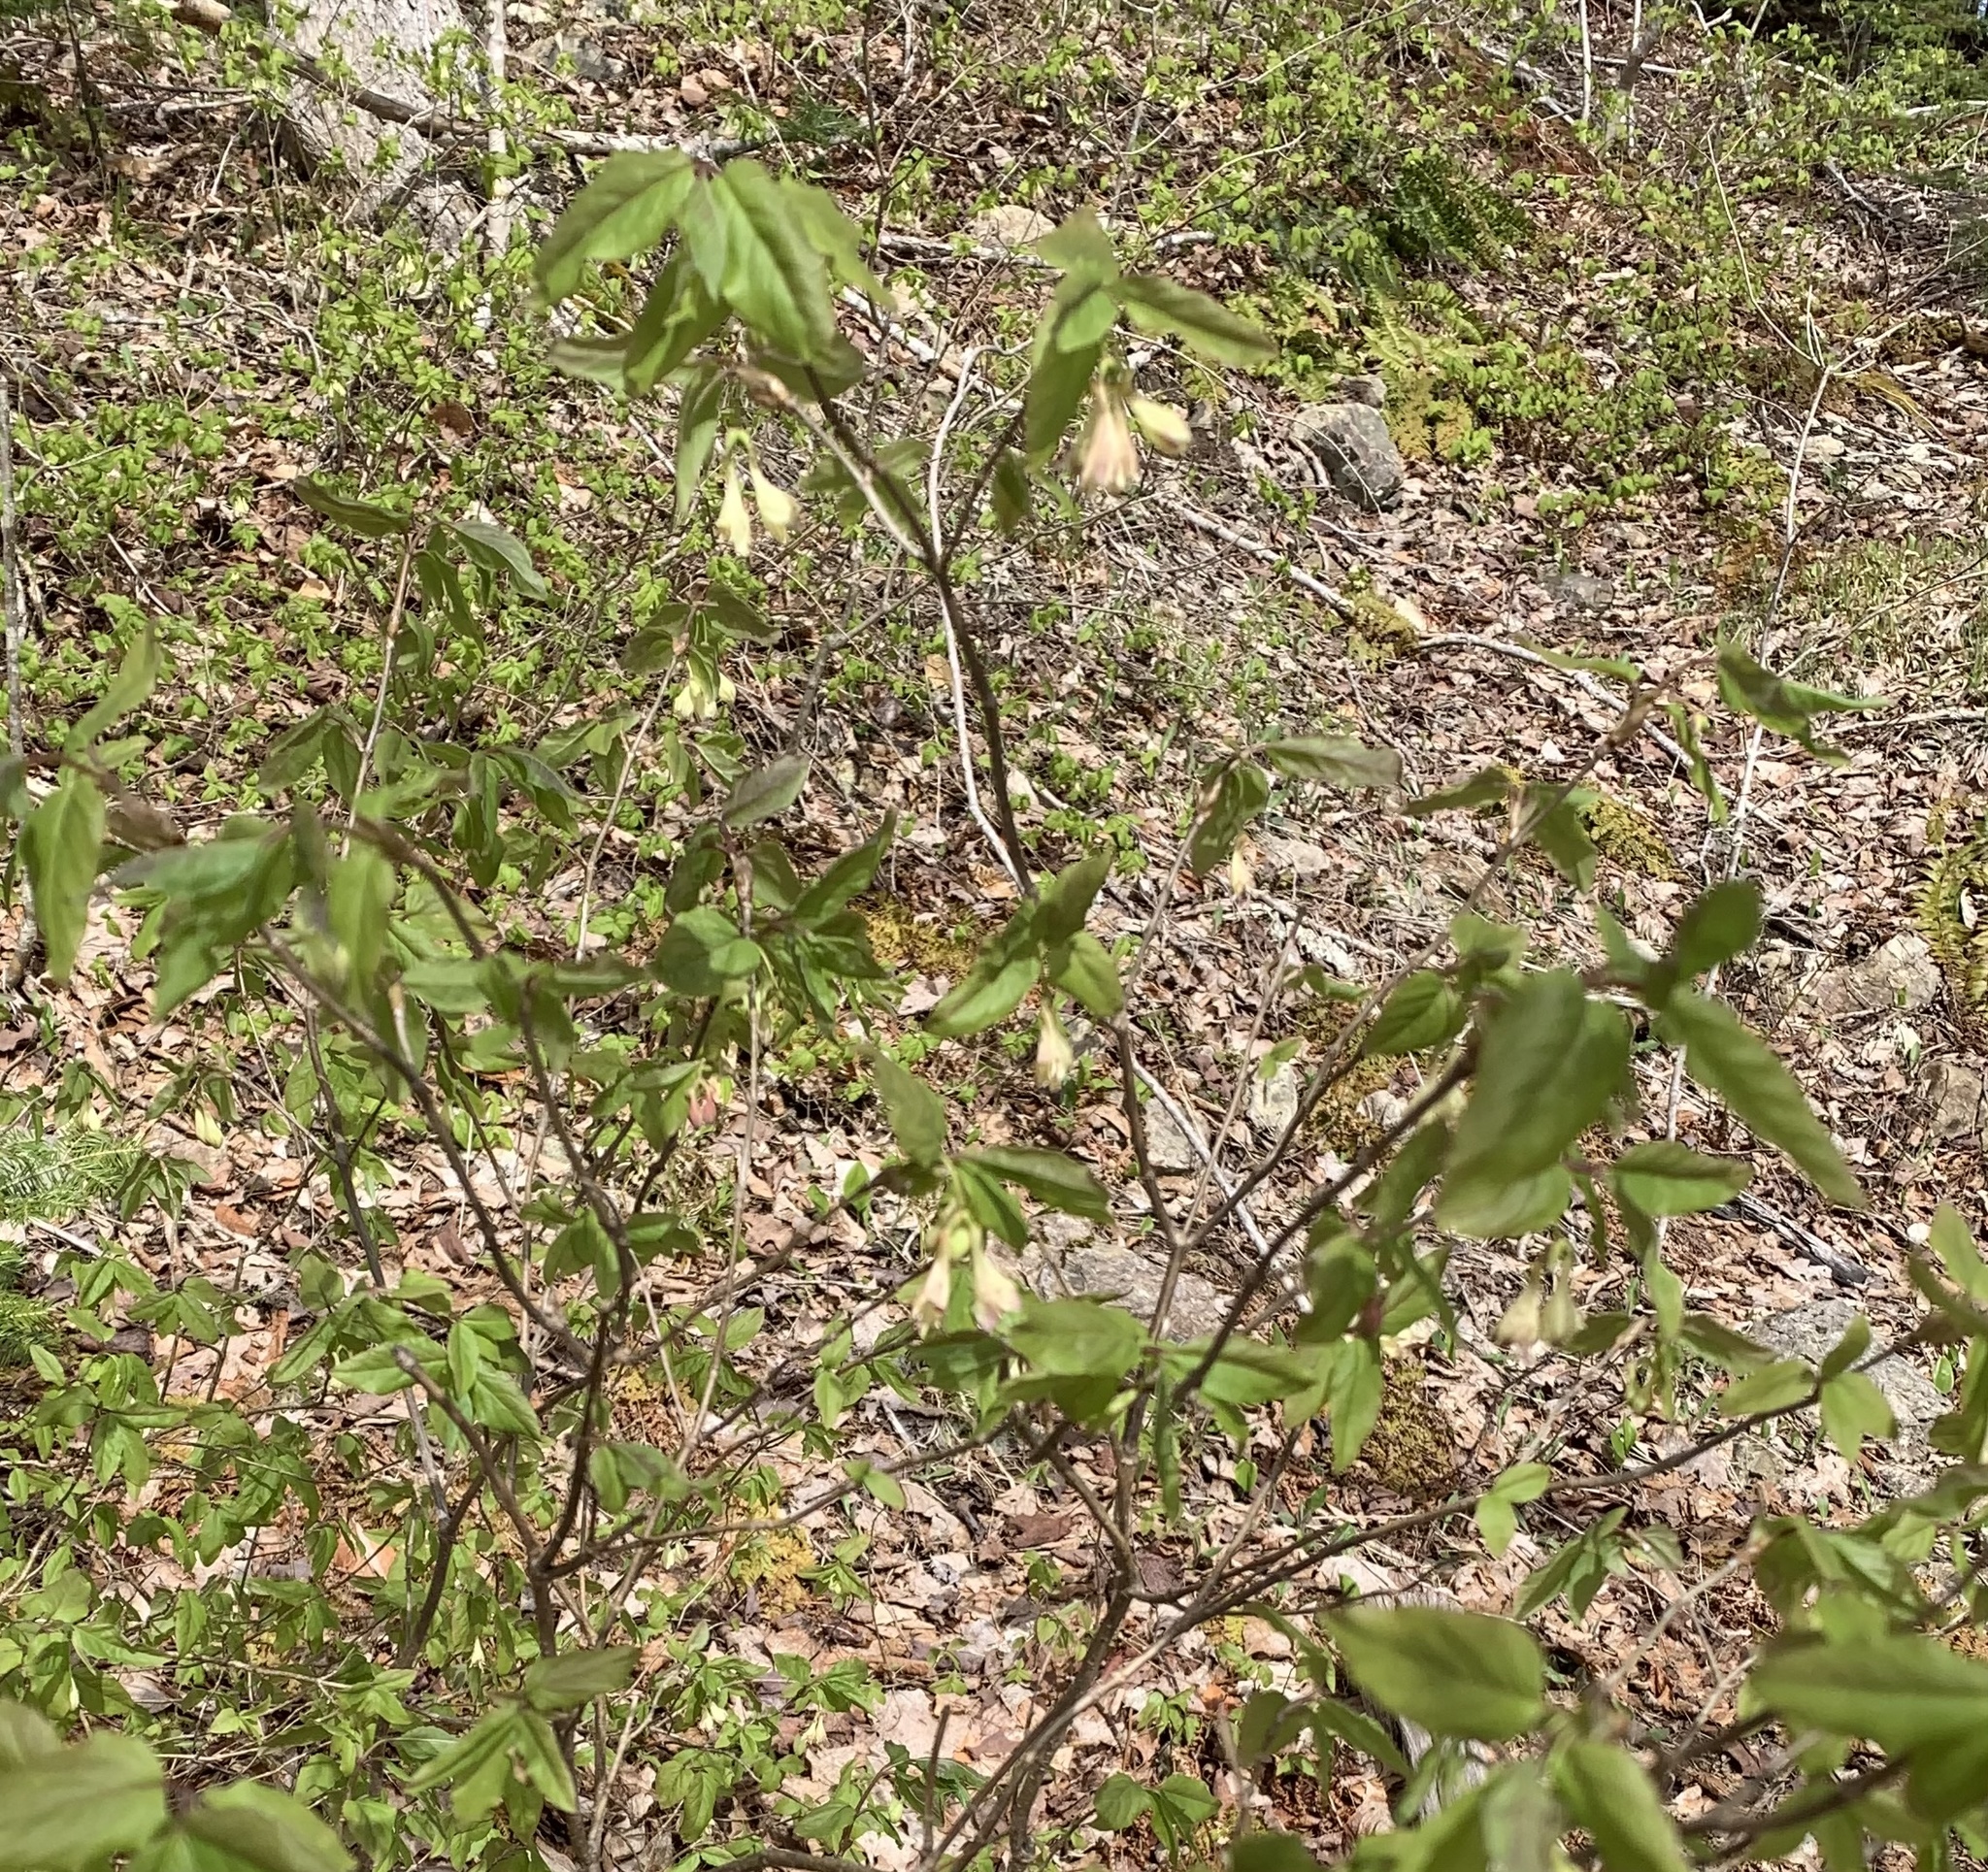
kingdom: Plantae
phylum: Tracheophyta
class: Magnoliopsida
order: Dipsacales
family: Caprifoliaceae
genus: Lonicera
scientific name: Lonicera canadensis
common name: American fly-honeysuckle
